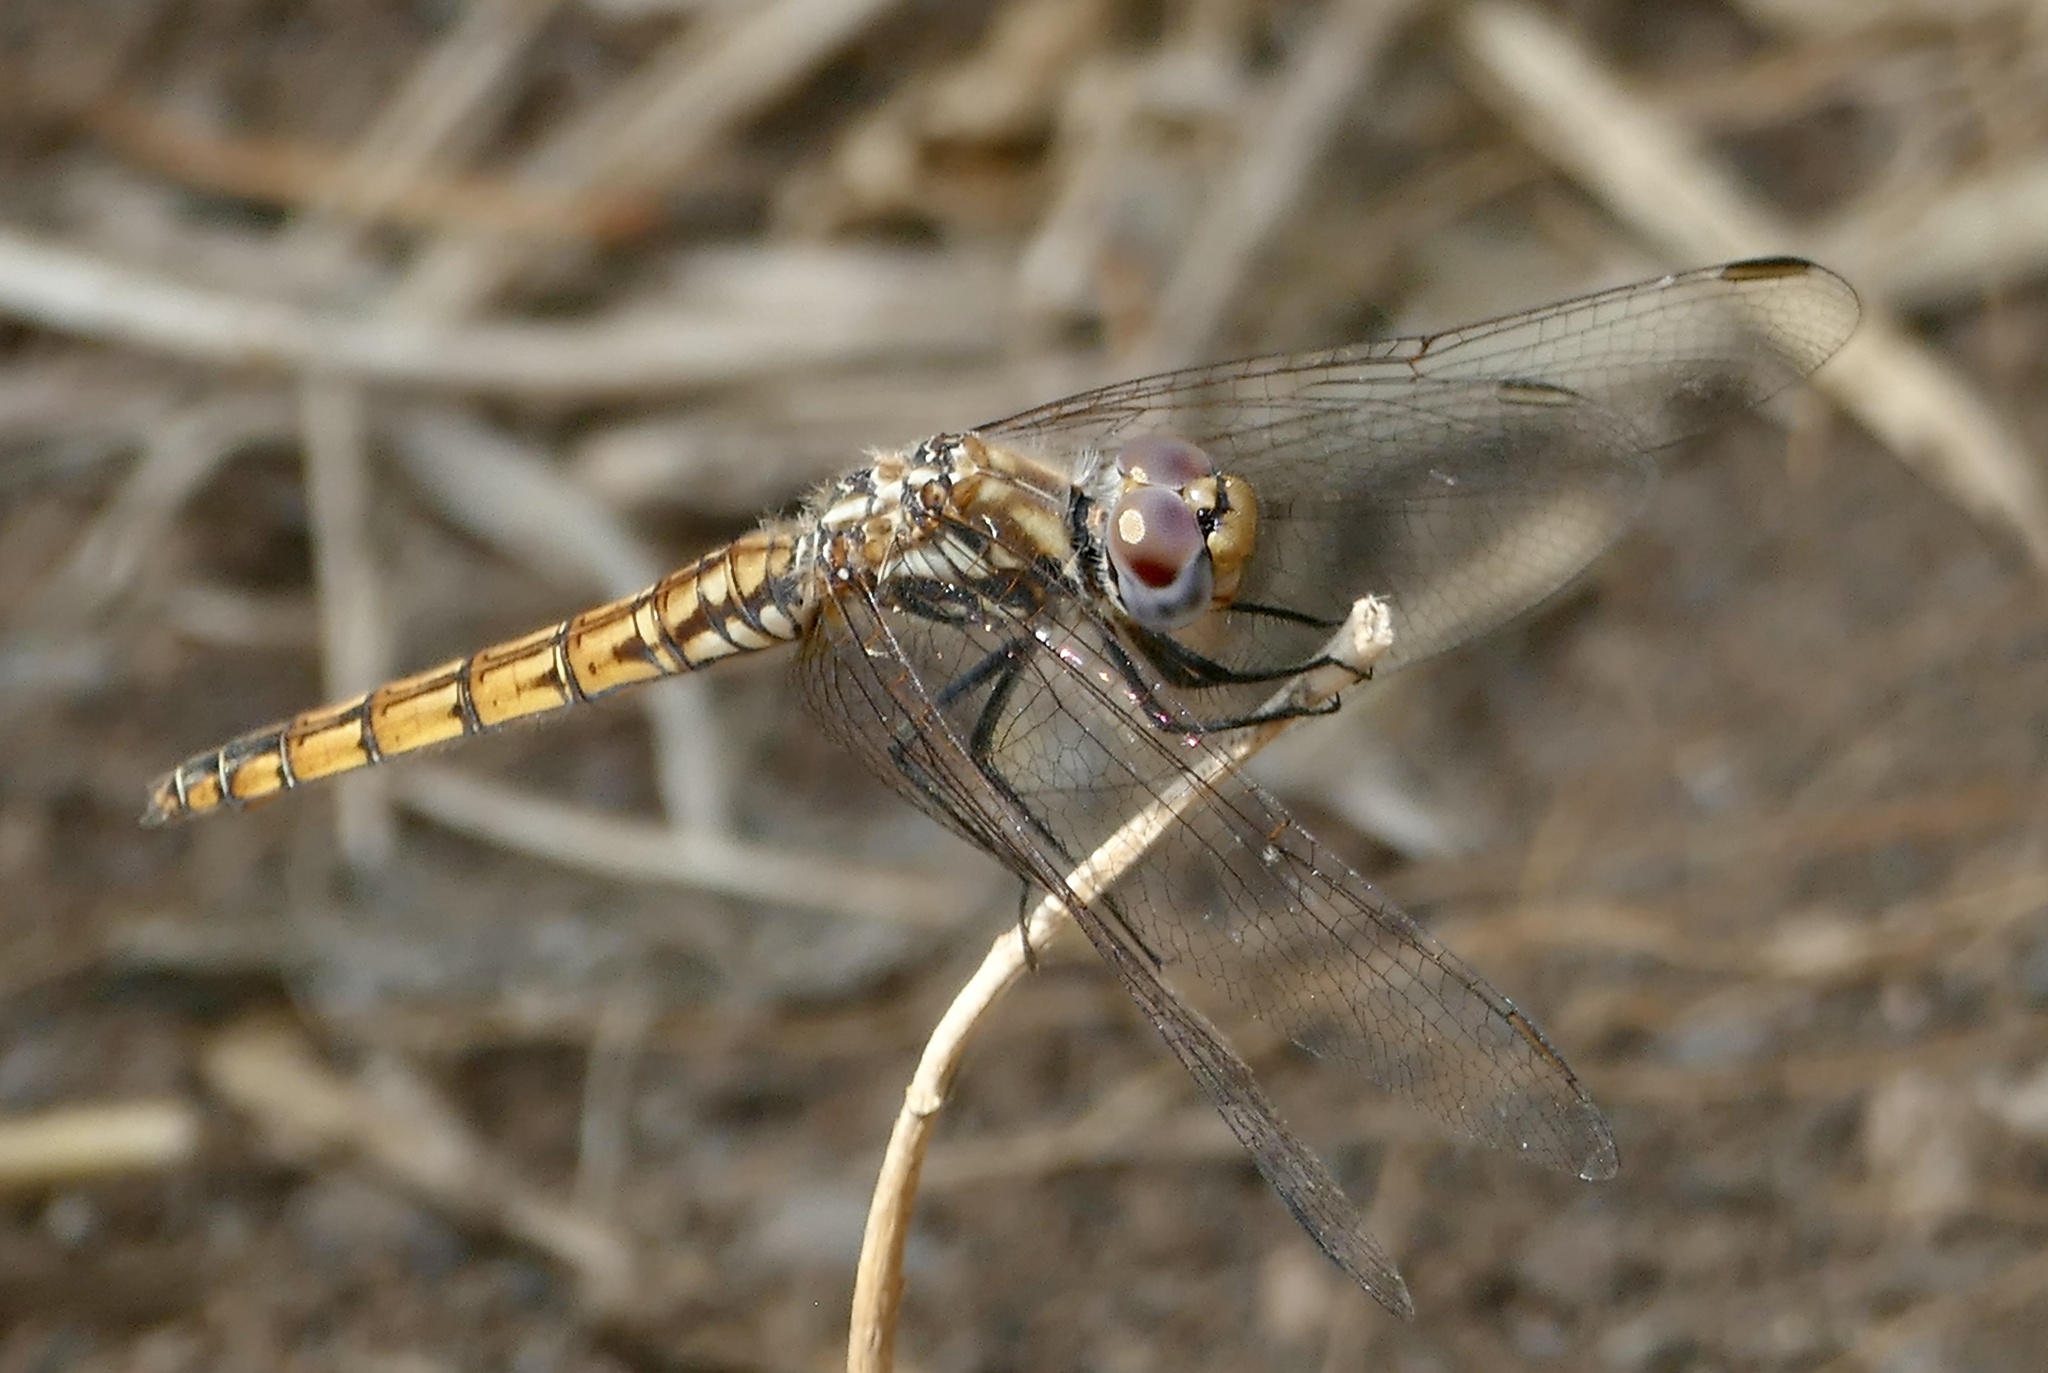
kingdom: Animalia
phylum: Arthropoda
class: Insecta
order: Odonata
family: Libellulidae
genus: Trithemis
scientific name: Trithemis annulata
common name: Violet dropwing
